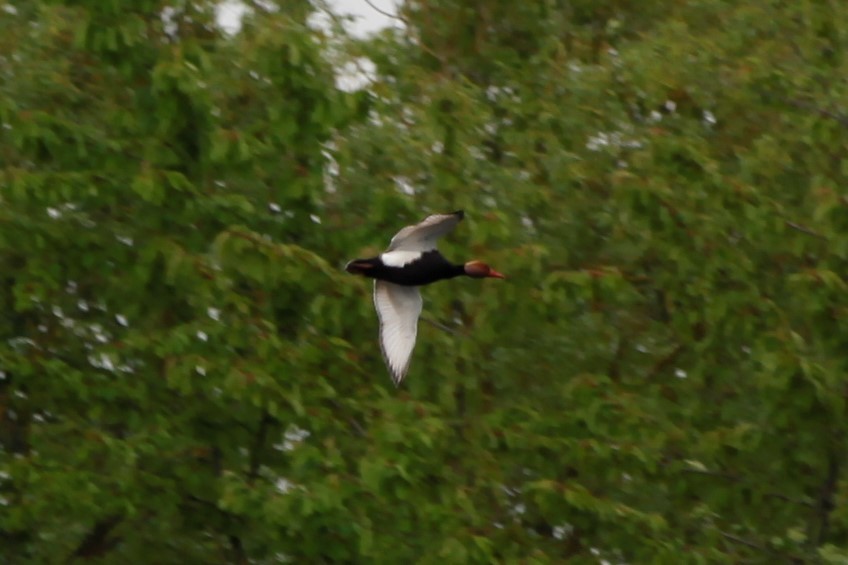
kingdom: Animalia
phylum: Chordata
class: Aves
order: Anseriformes
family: Anatidae
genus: Netta
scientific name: Netta rufina
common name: Red-crested pochard
